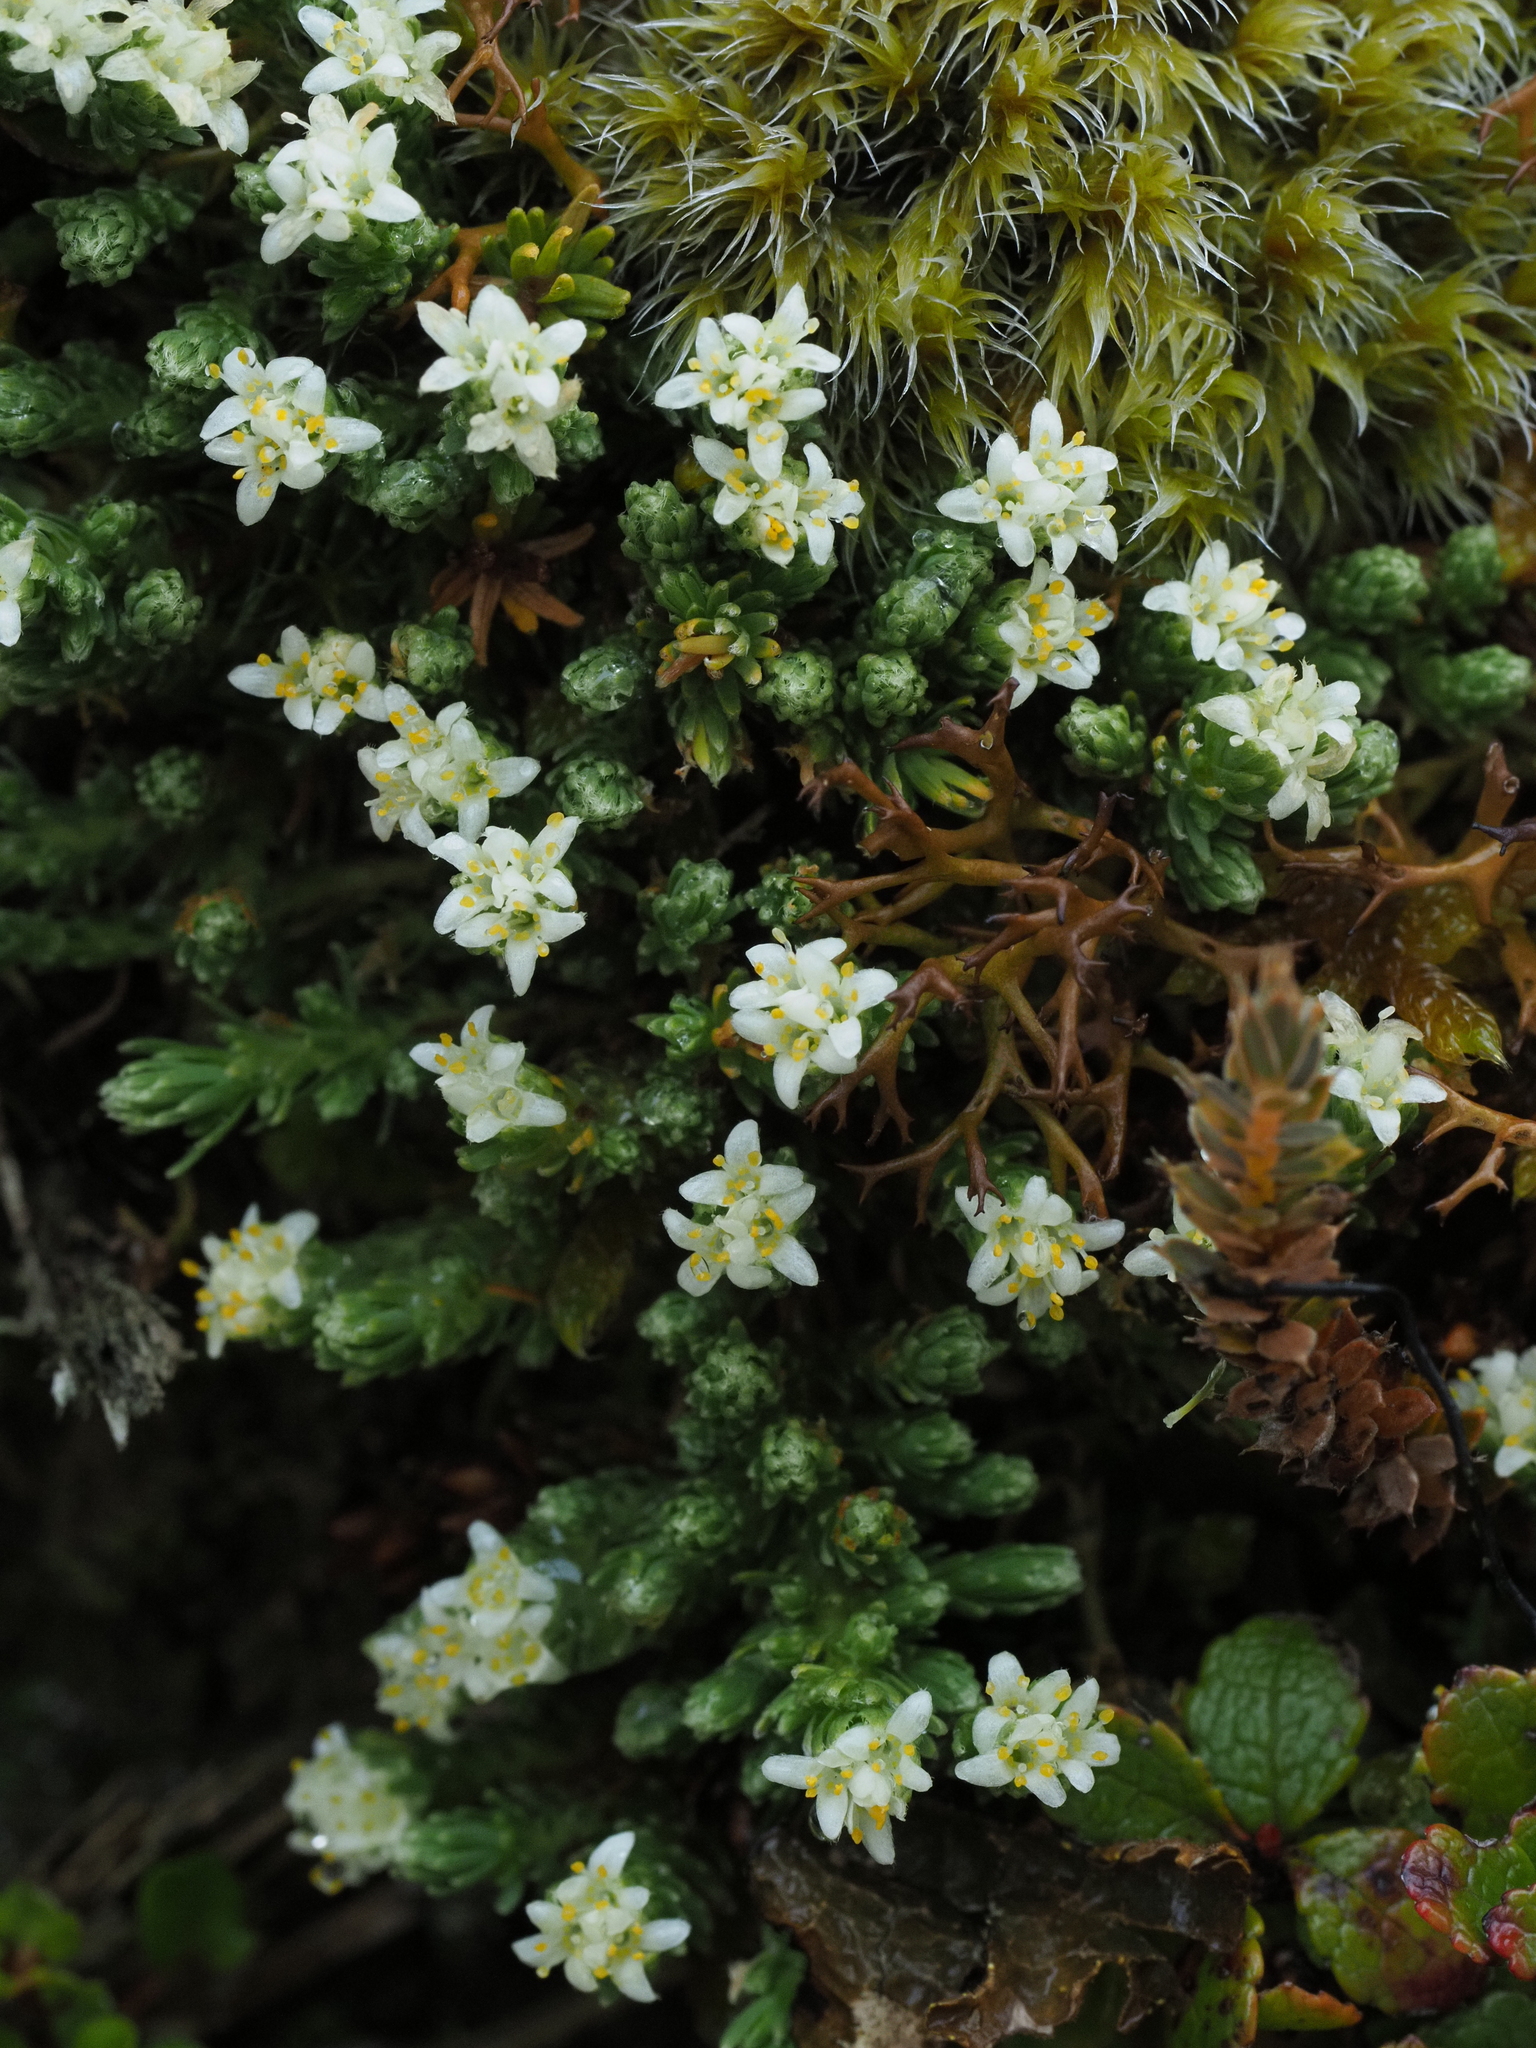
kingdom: Plantae
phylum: Tracheophyta
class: Magnoliopsida
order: Malvales
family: Thymelaeaceae
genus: Kelleria
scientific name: Kelleria dieffenbachii
